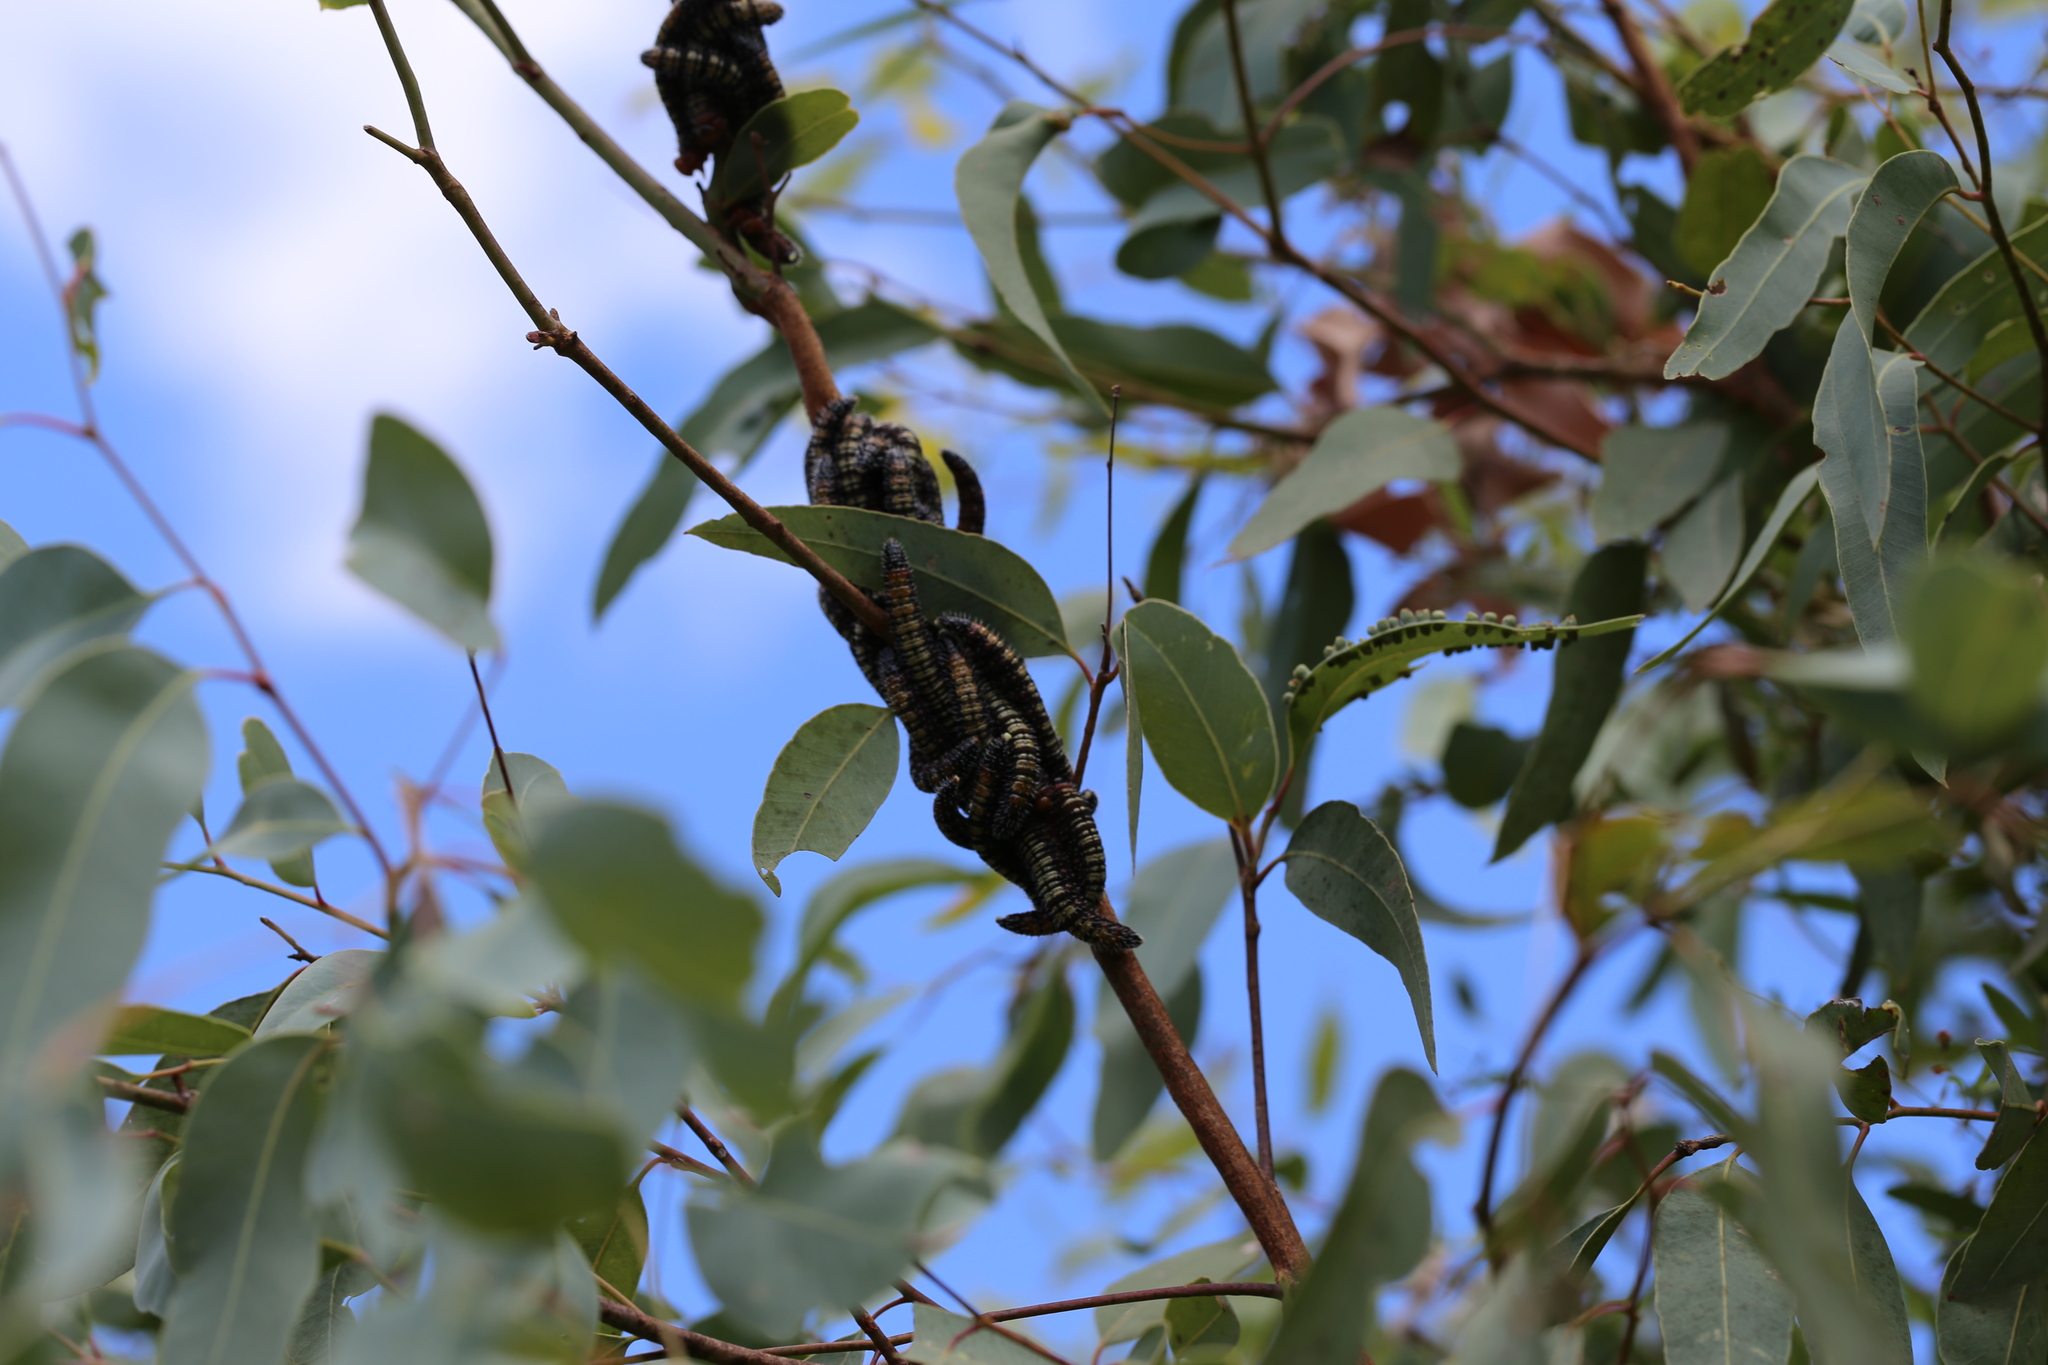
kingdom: Animalia
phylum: Arthropoda
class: Insecta
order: Hymenoptera
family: Pergidae
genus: Perga
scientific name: Perga affinis
